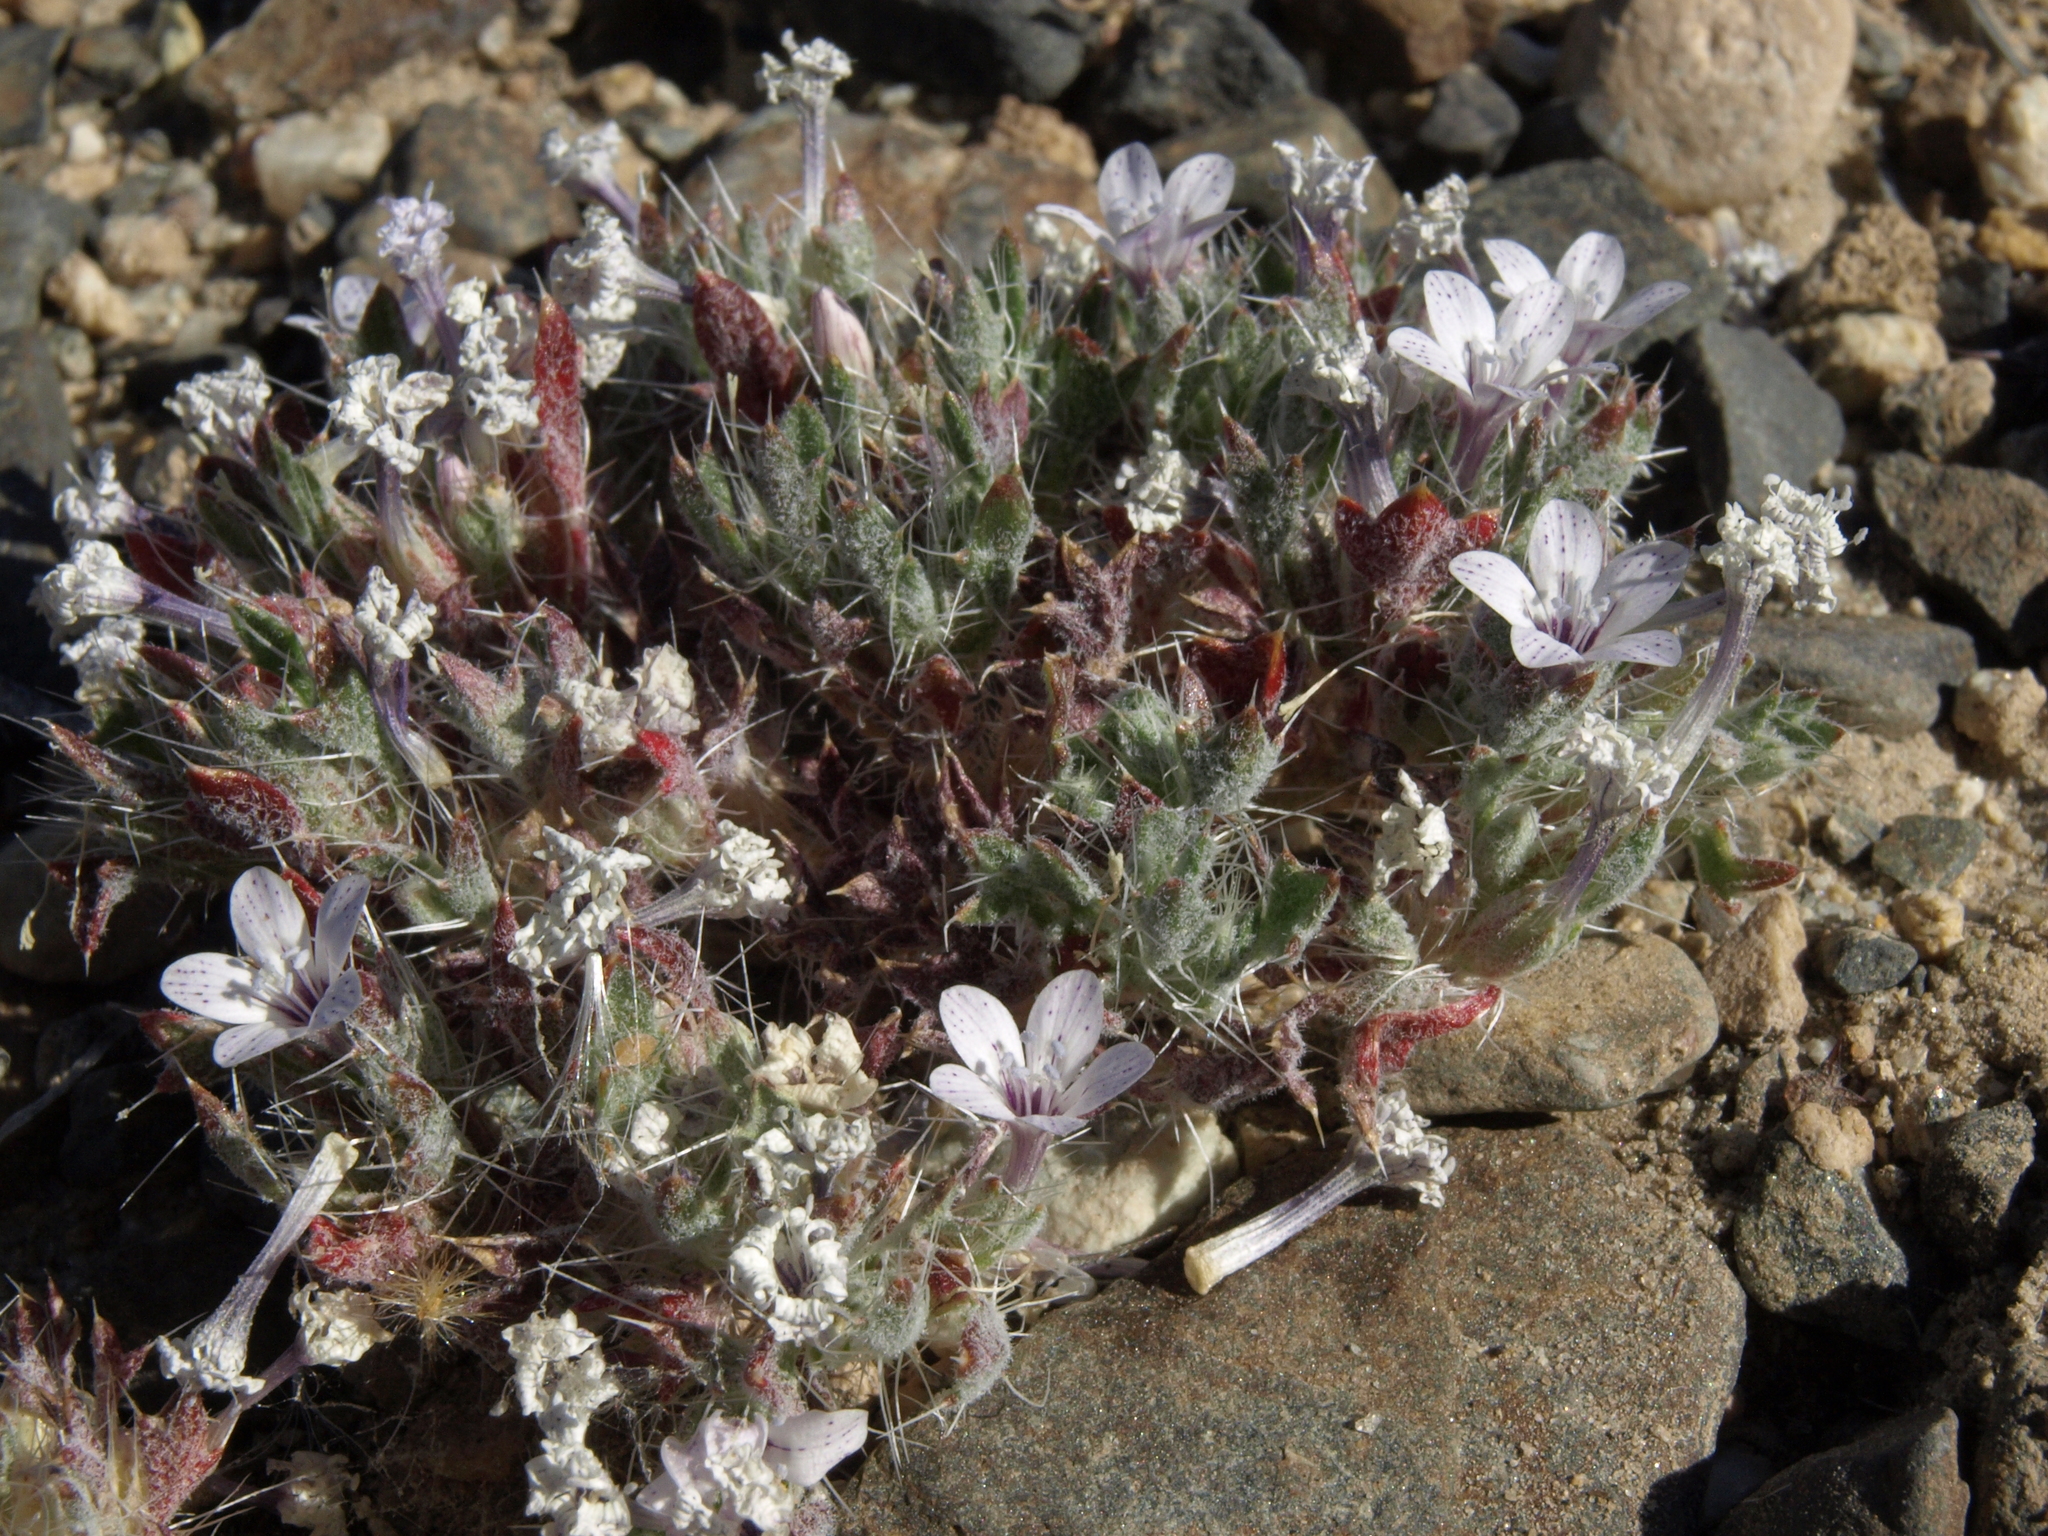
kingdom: Plantae
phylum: Tracheophyta
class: Magnoliopsida
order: Ericales
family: Polemoniaceae
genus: Langloisia
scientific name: Langloisia setosissima
